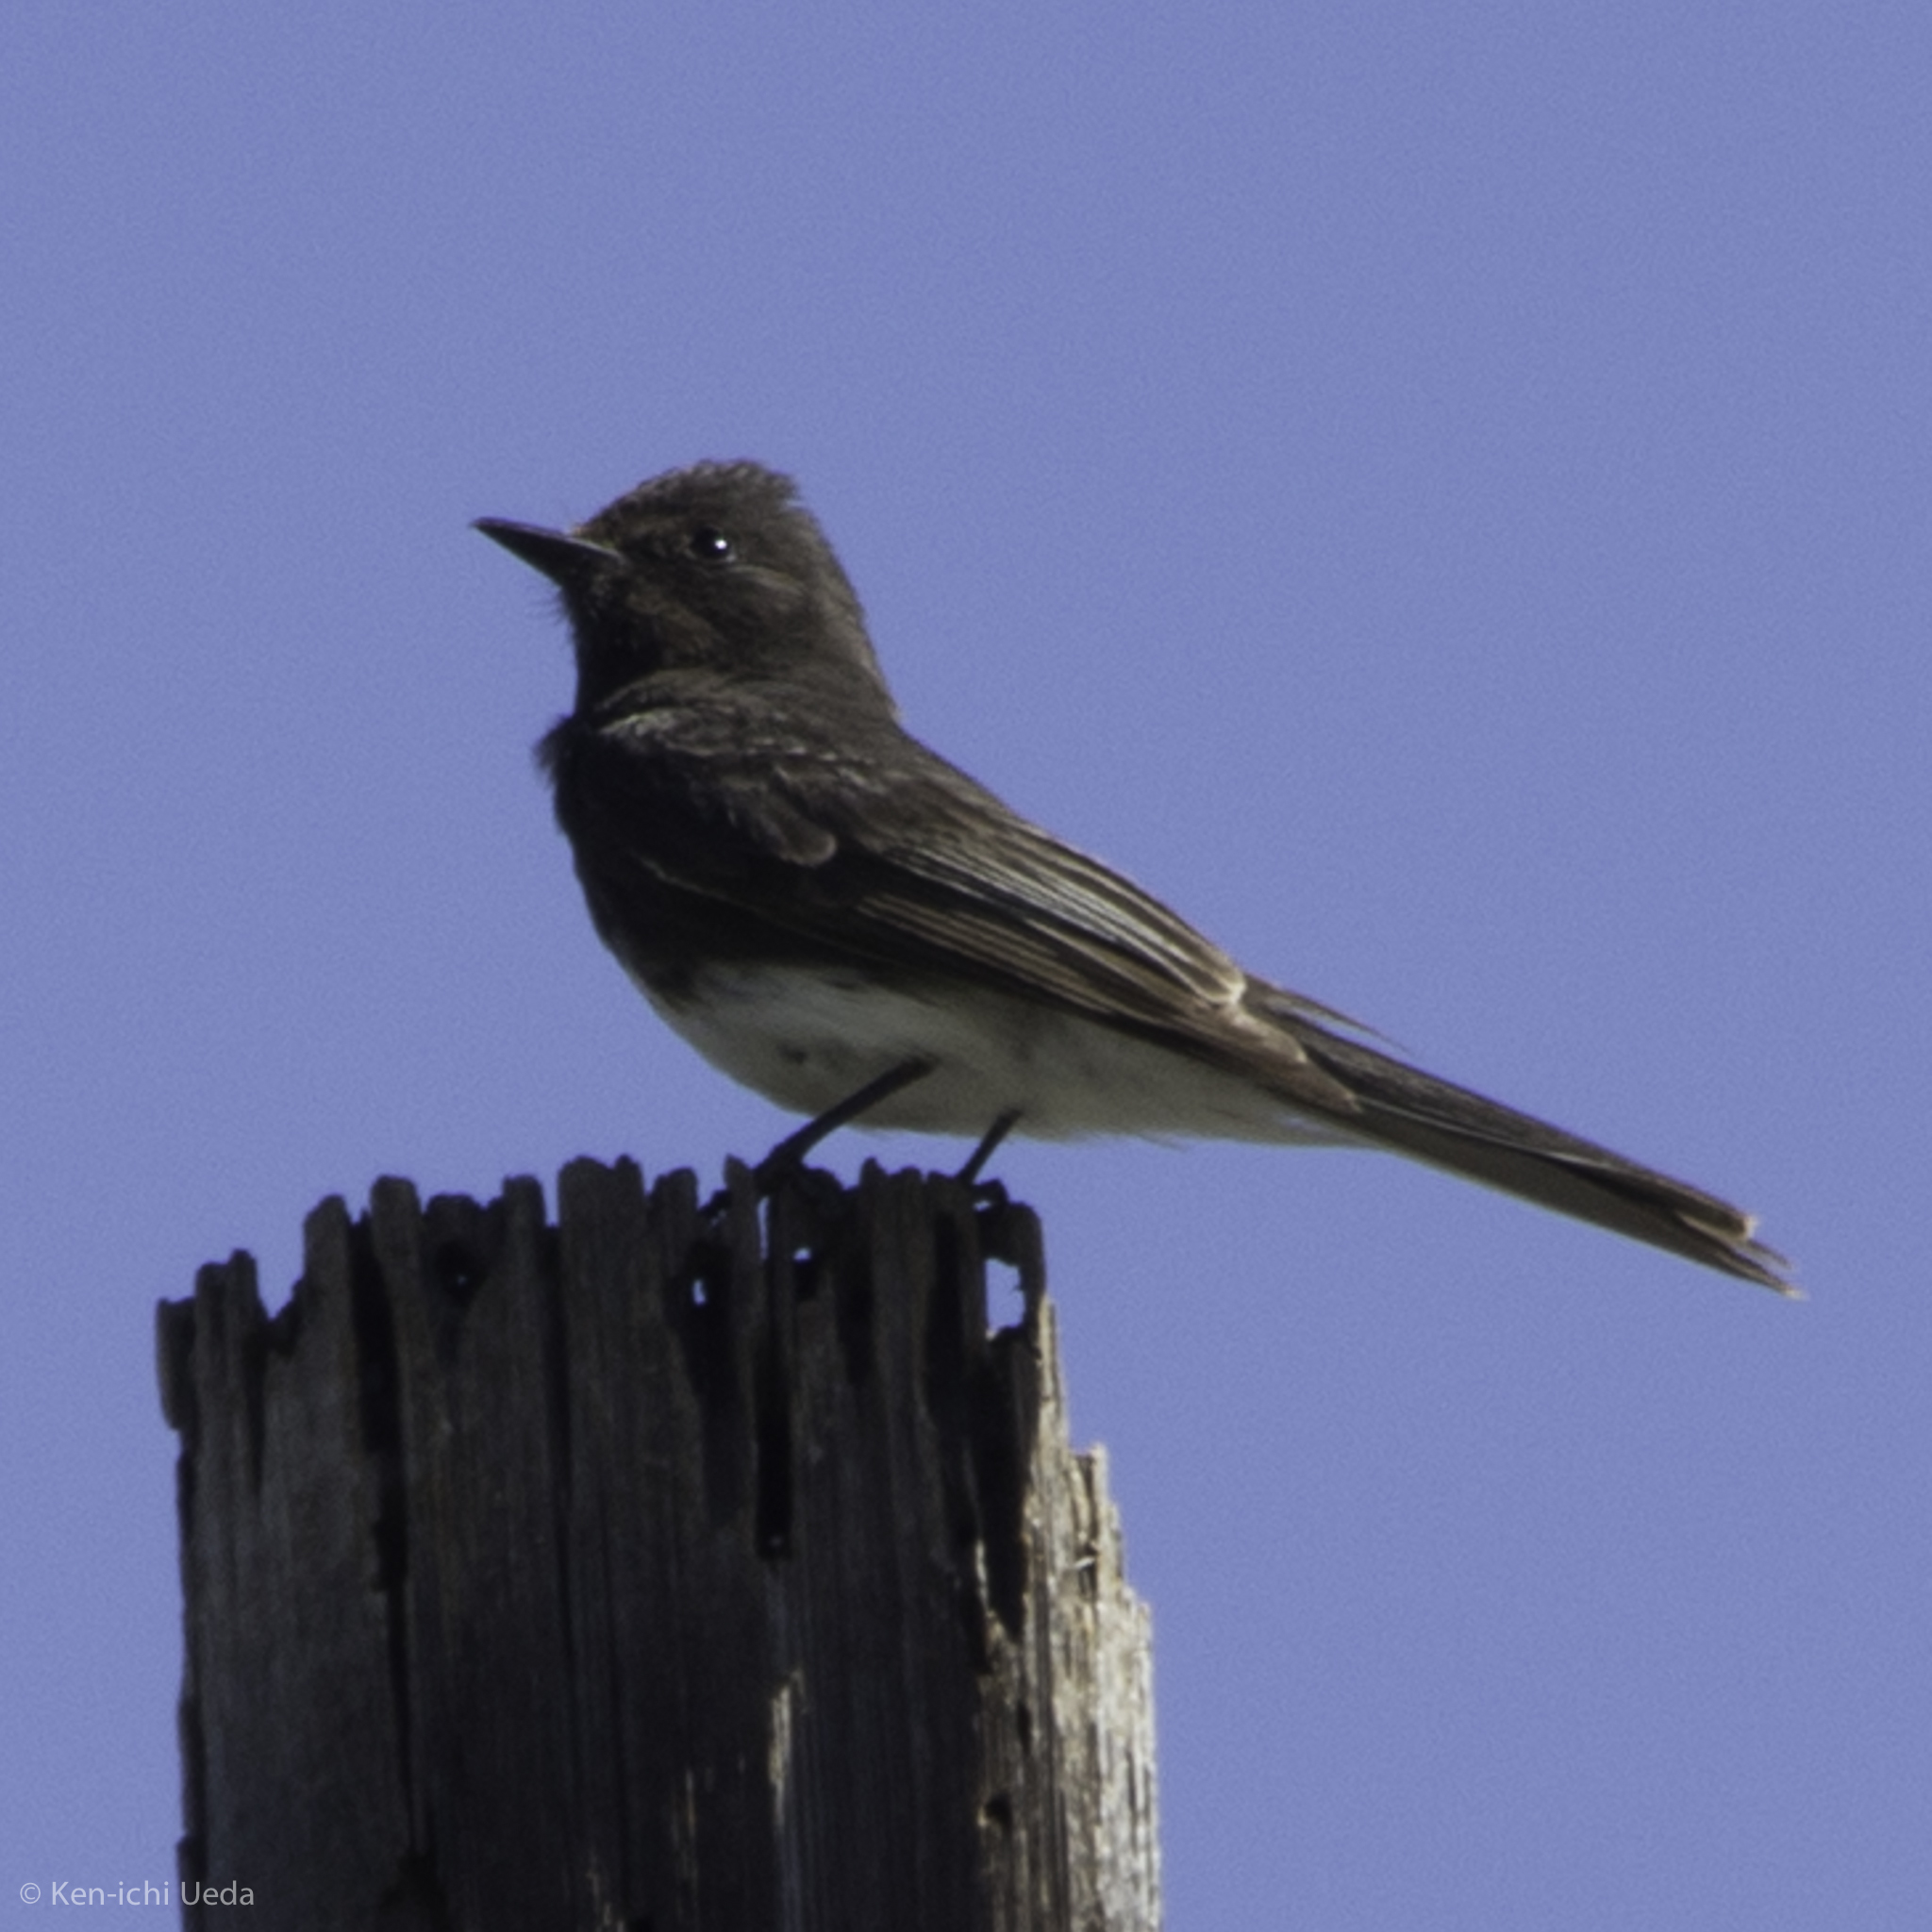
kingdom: Animalia
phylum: Chordata
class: Aves
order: Passeriformes
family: Tyrannidae
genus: Sayornis
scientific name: Sayornis nigricans
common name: Black phoebe
